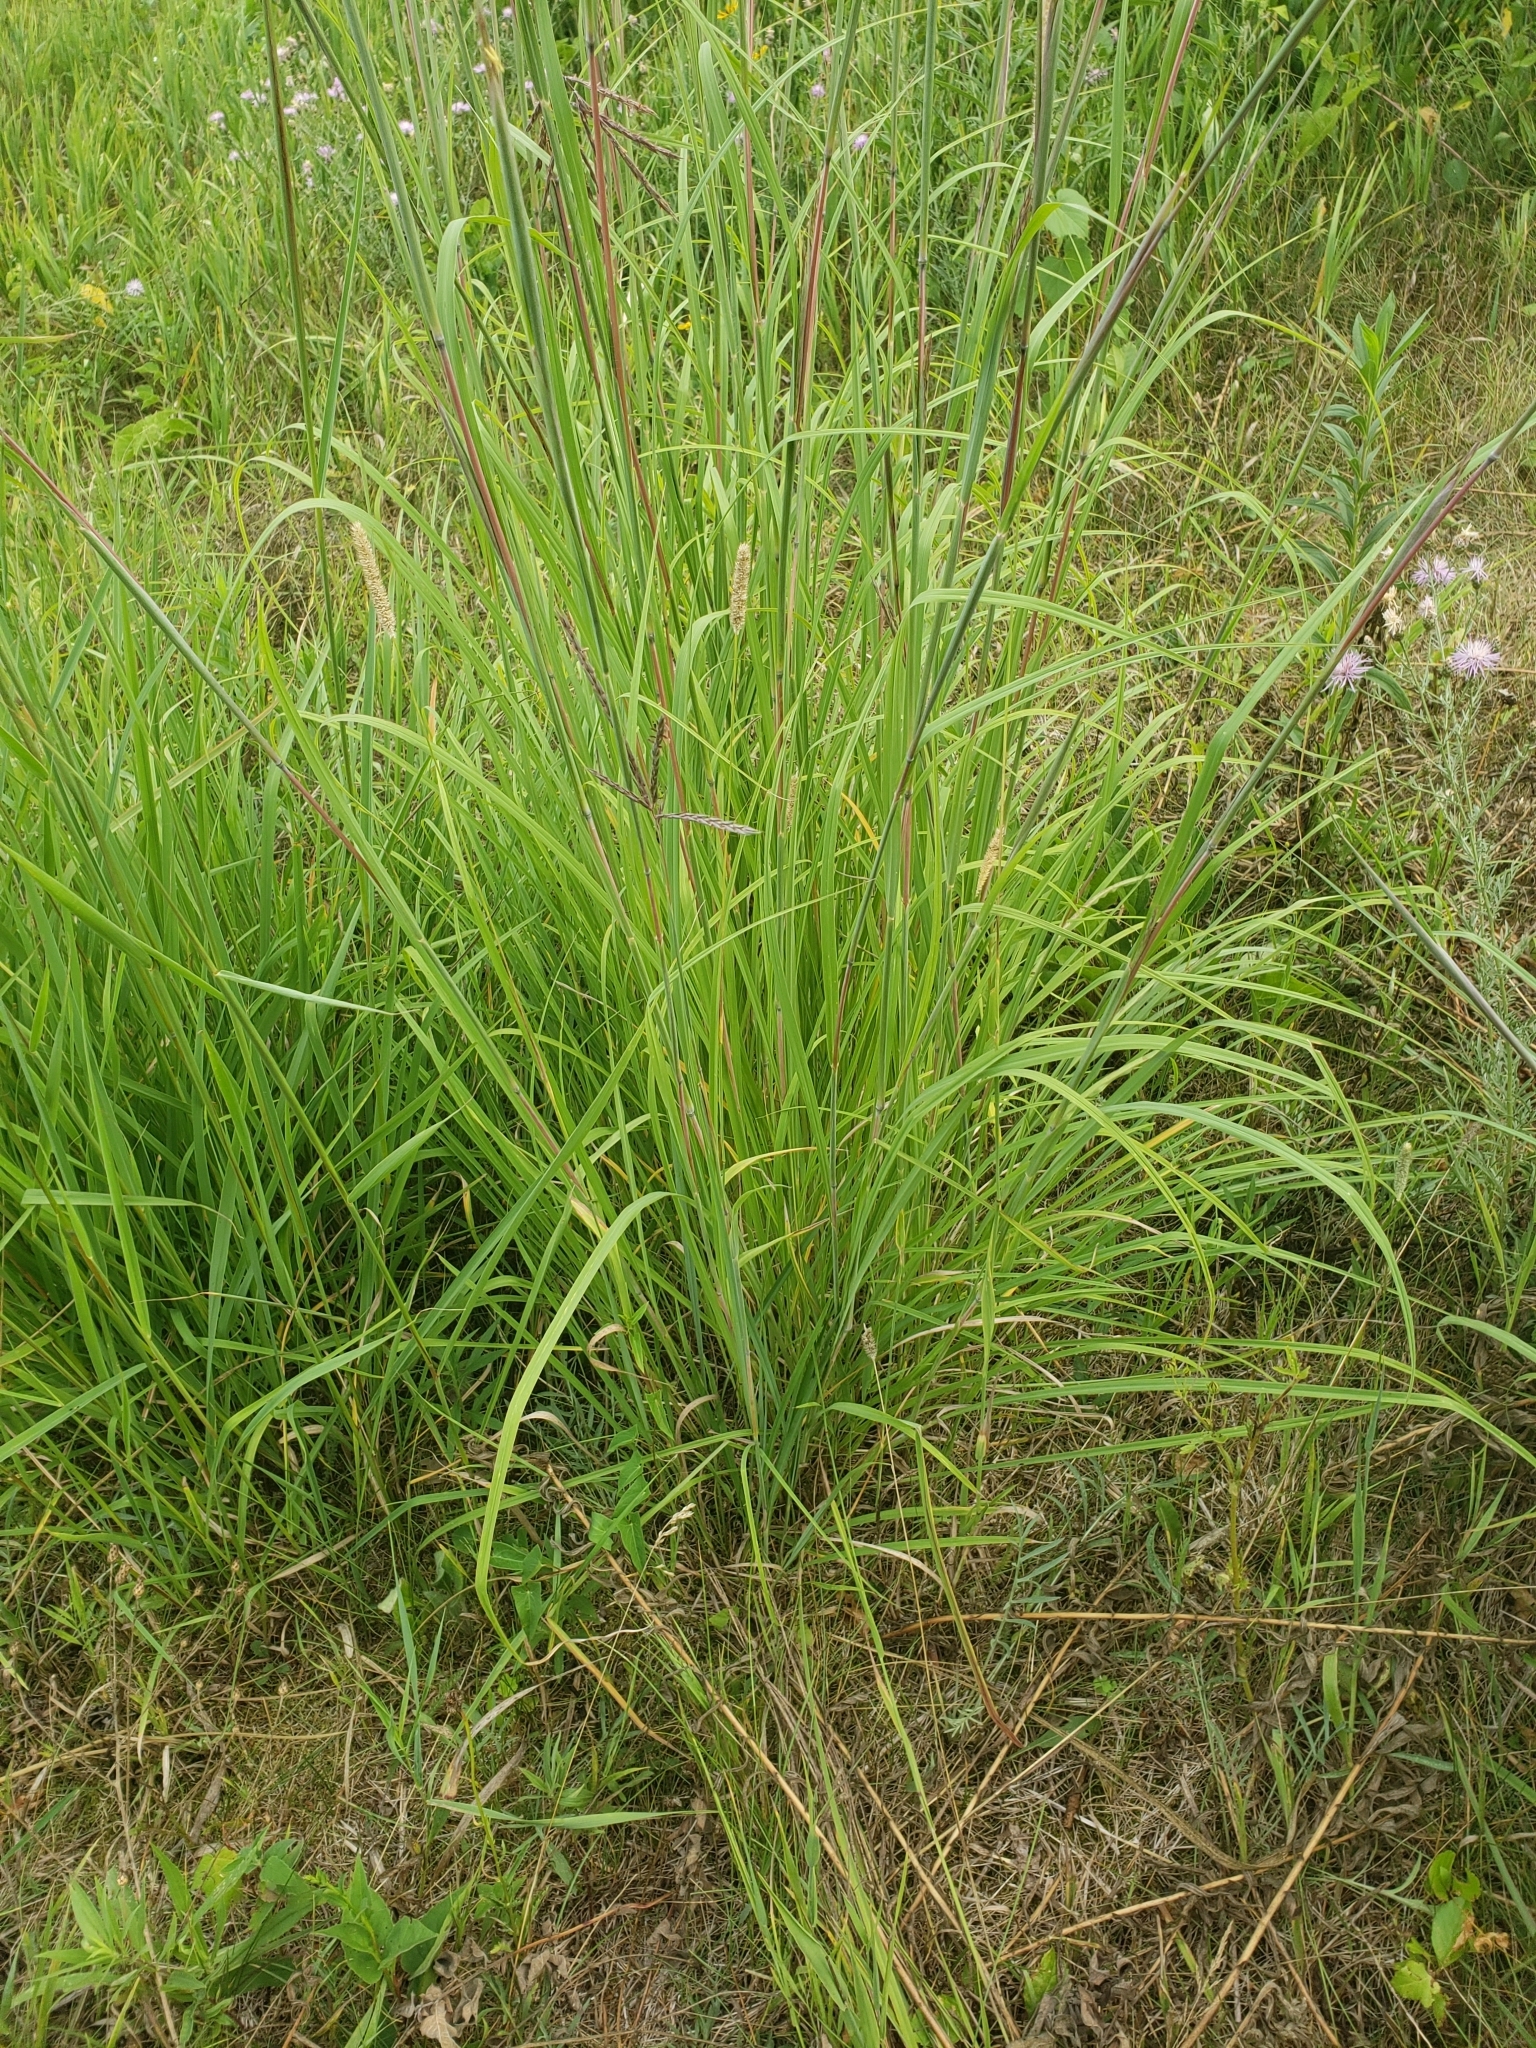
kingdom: Plantae
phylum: Tracheophyta
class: Liliopsida
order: Poales
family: Poaceae
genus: Andropogon
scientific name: Andropogon gerardi
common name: Big bluestem
